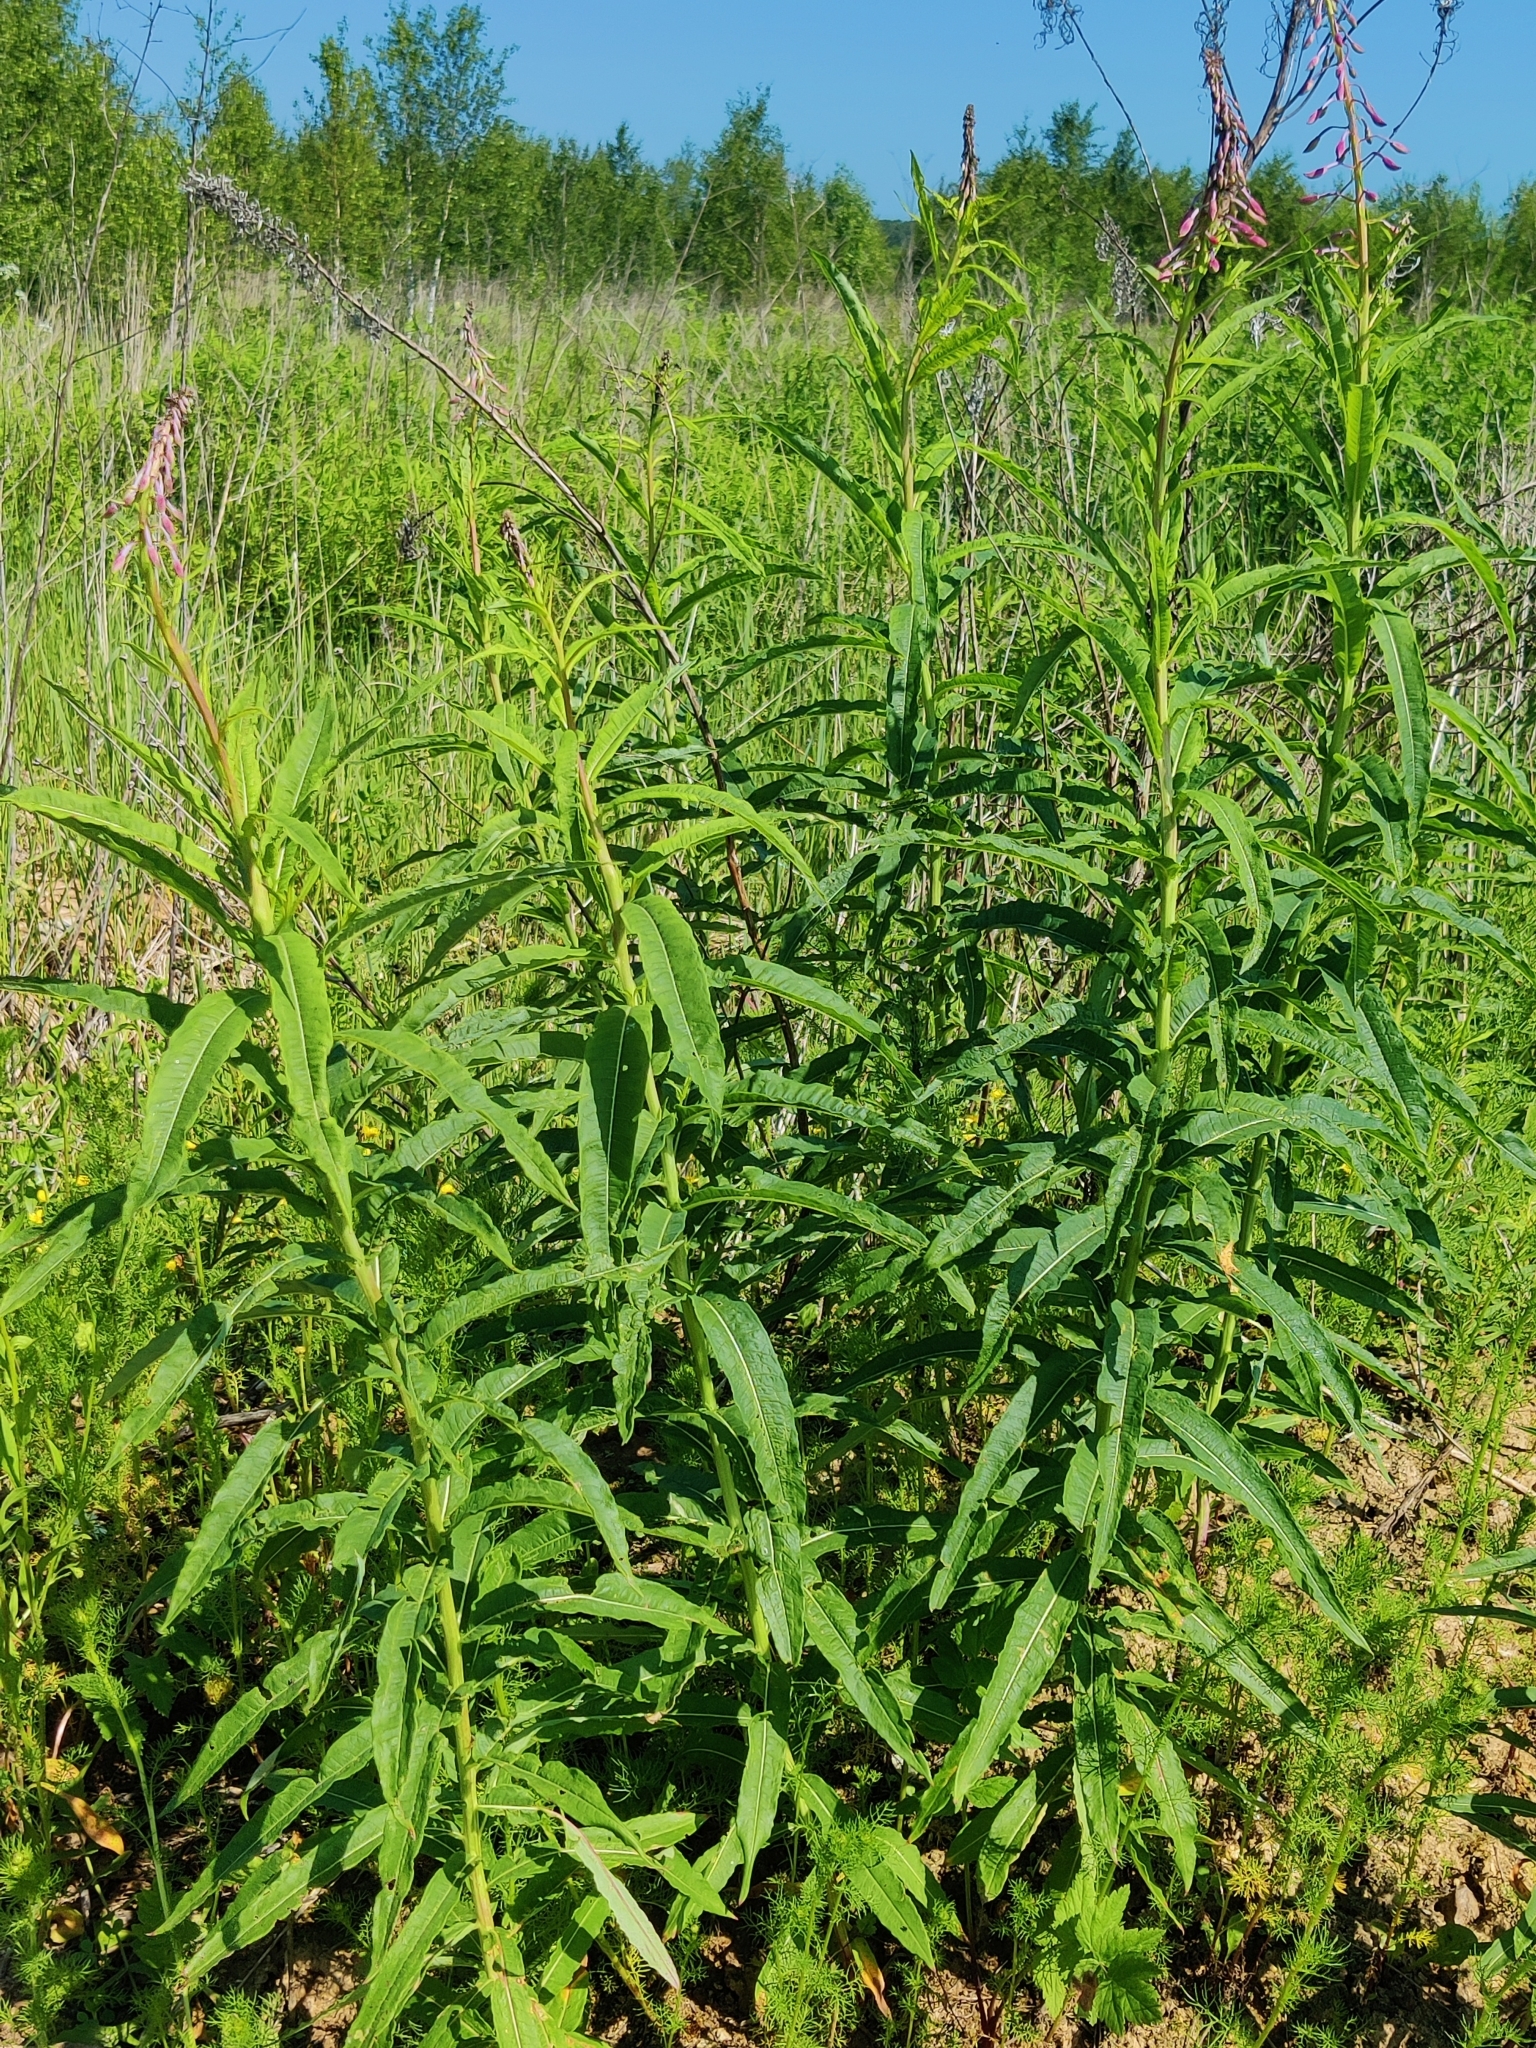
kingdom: Plantae
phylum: Tracheophyta
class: Magnoliopsida
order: Myrtales
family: Onagraceae
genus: Chamaenerion
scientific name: Chamaenerion angustifolium
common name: Fireweed
